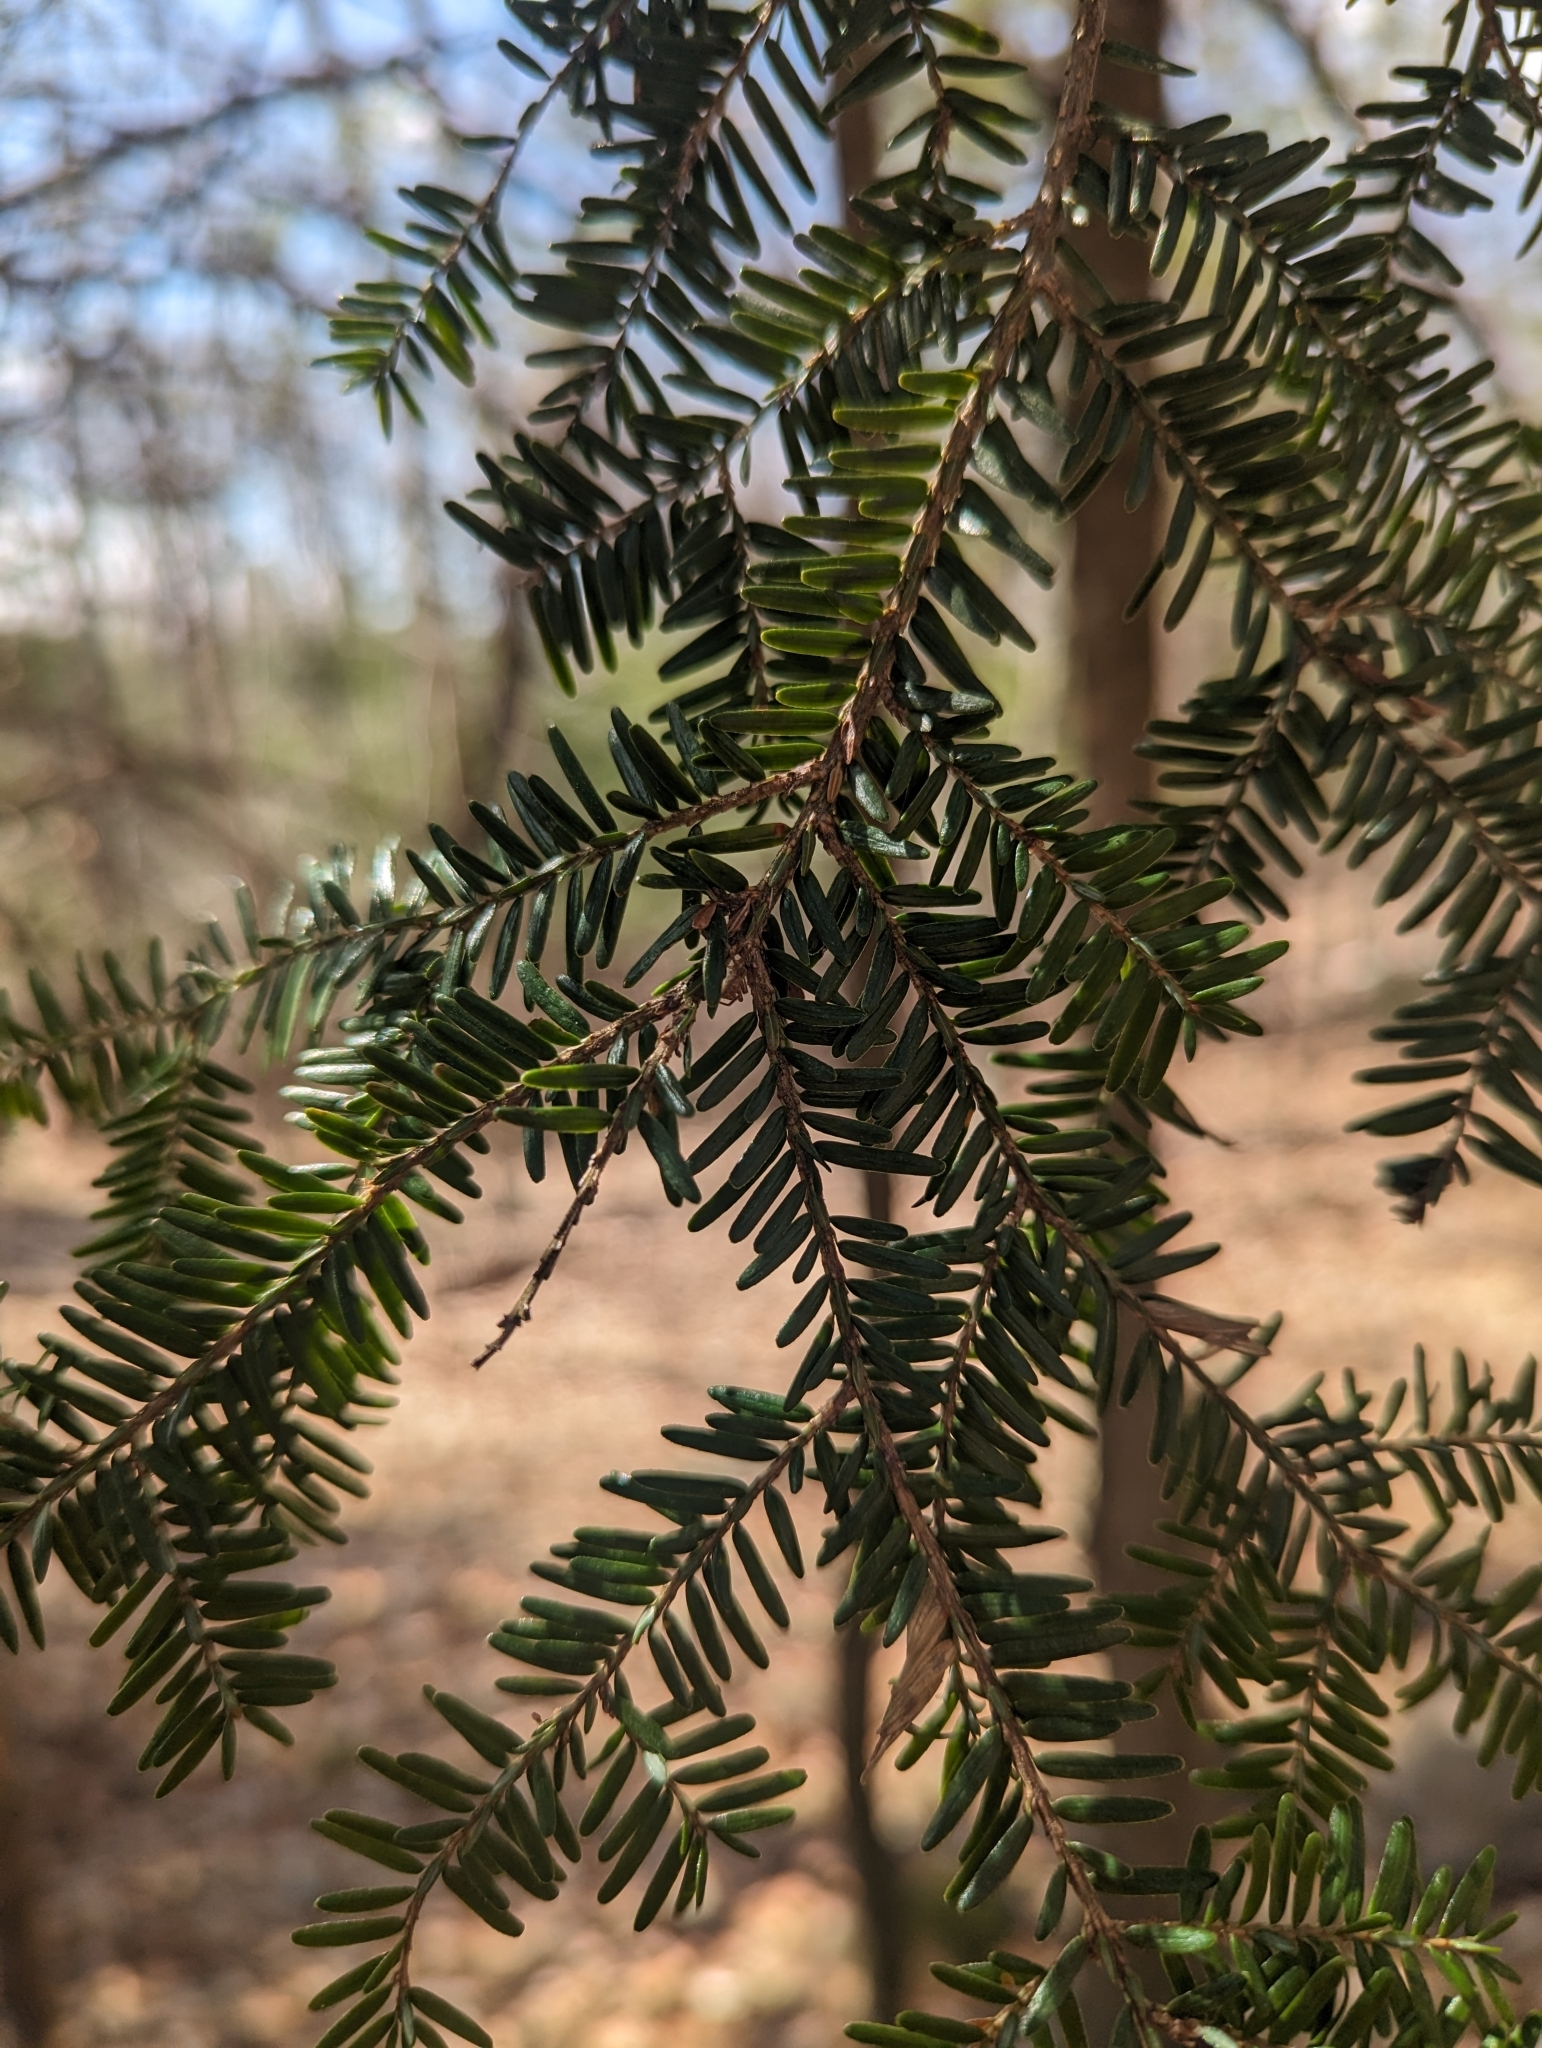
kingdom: Plantae
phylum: Tracheophyta
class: Pinopsida
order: Pinales
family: Pinaceae
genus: Tsuga
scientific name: Tsuga canadensis
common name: Eastern hemlock
